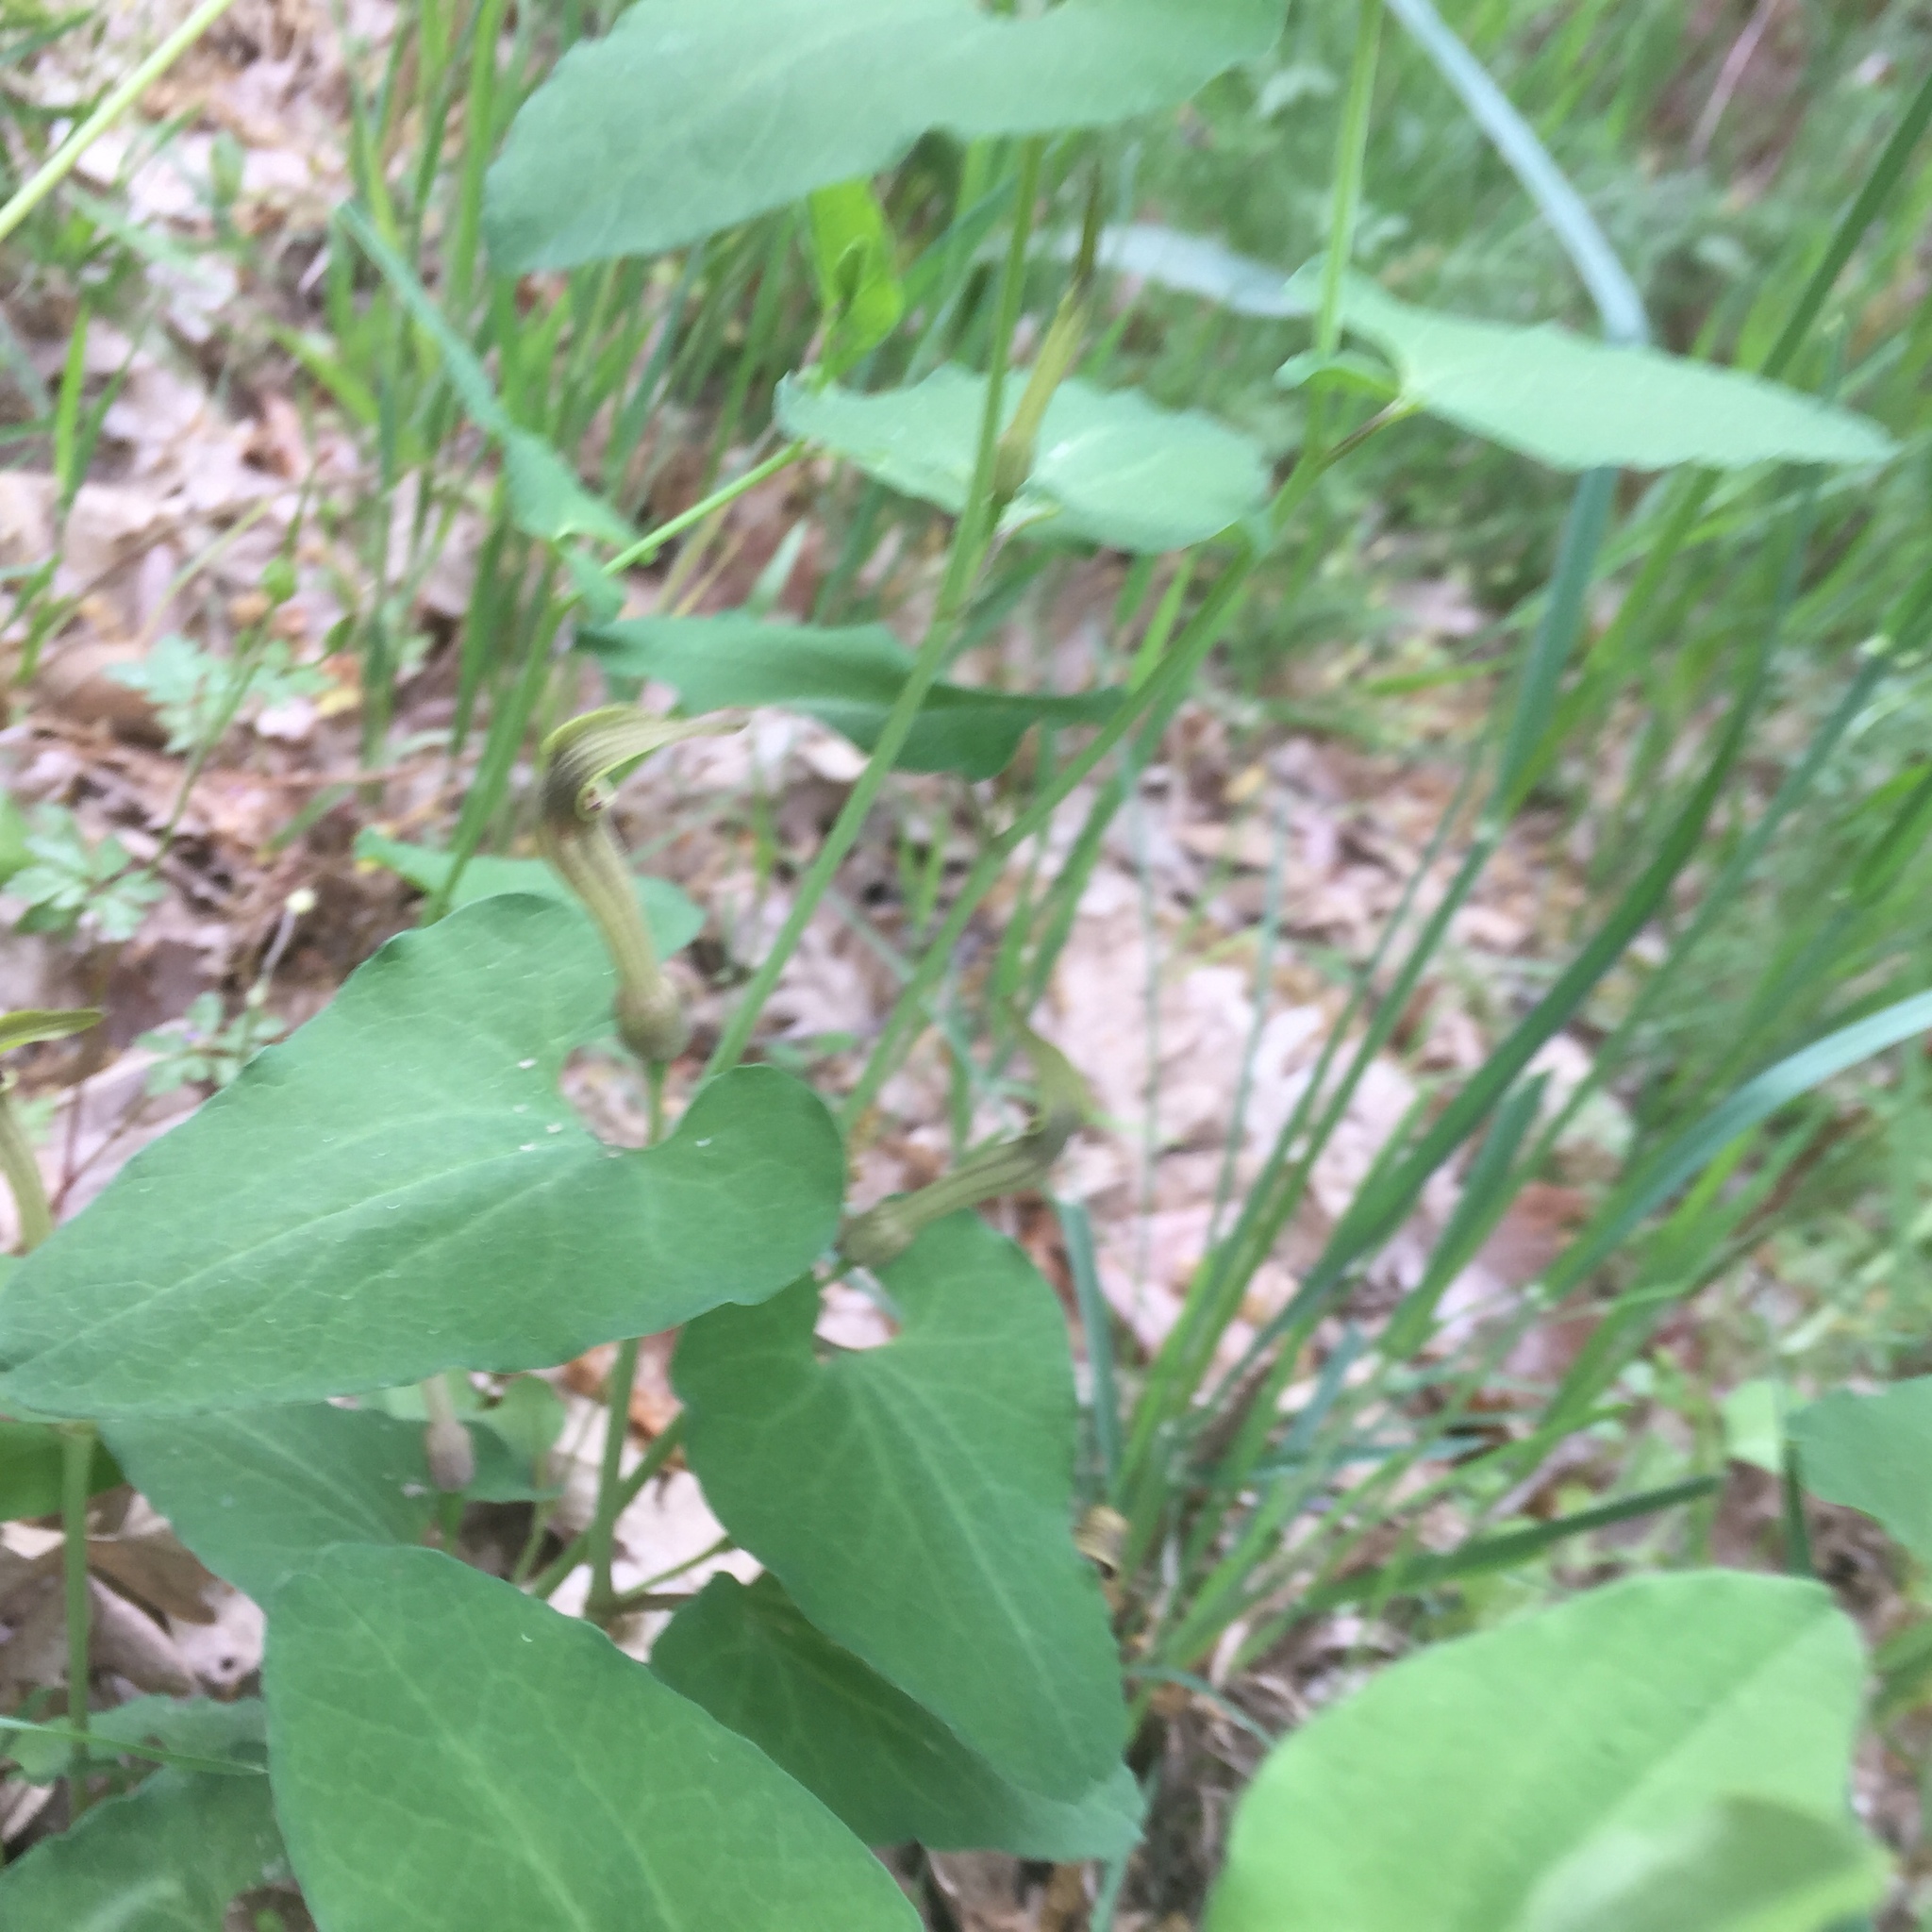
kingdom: Plantae
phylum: Tracheophyta
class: Magnoliopsida
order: Piperales
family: Aristolochiaceae
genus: Aristolochia
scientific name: Aristolochia paucinervis
